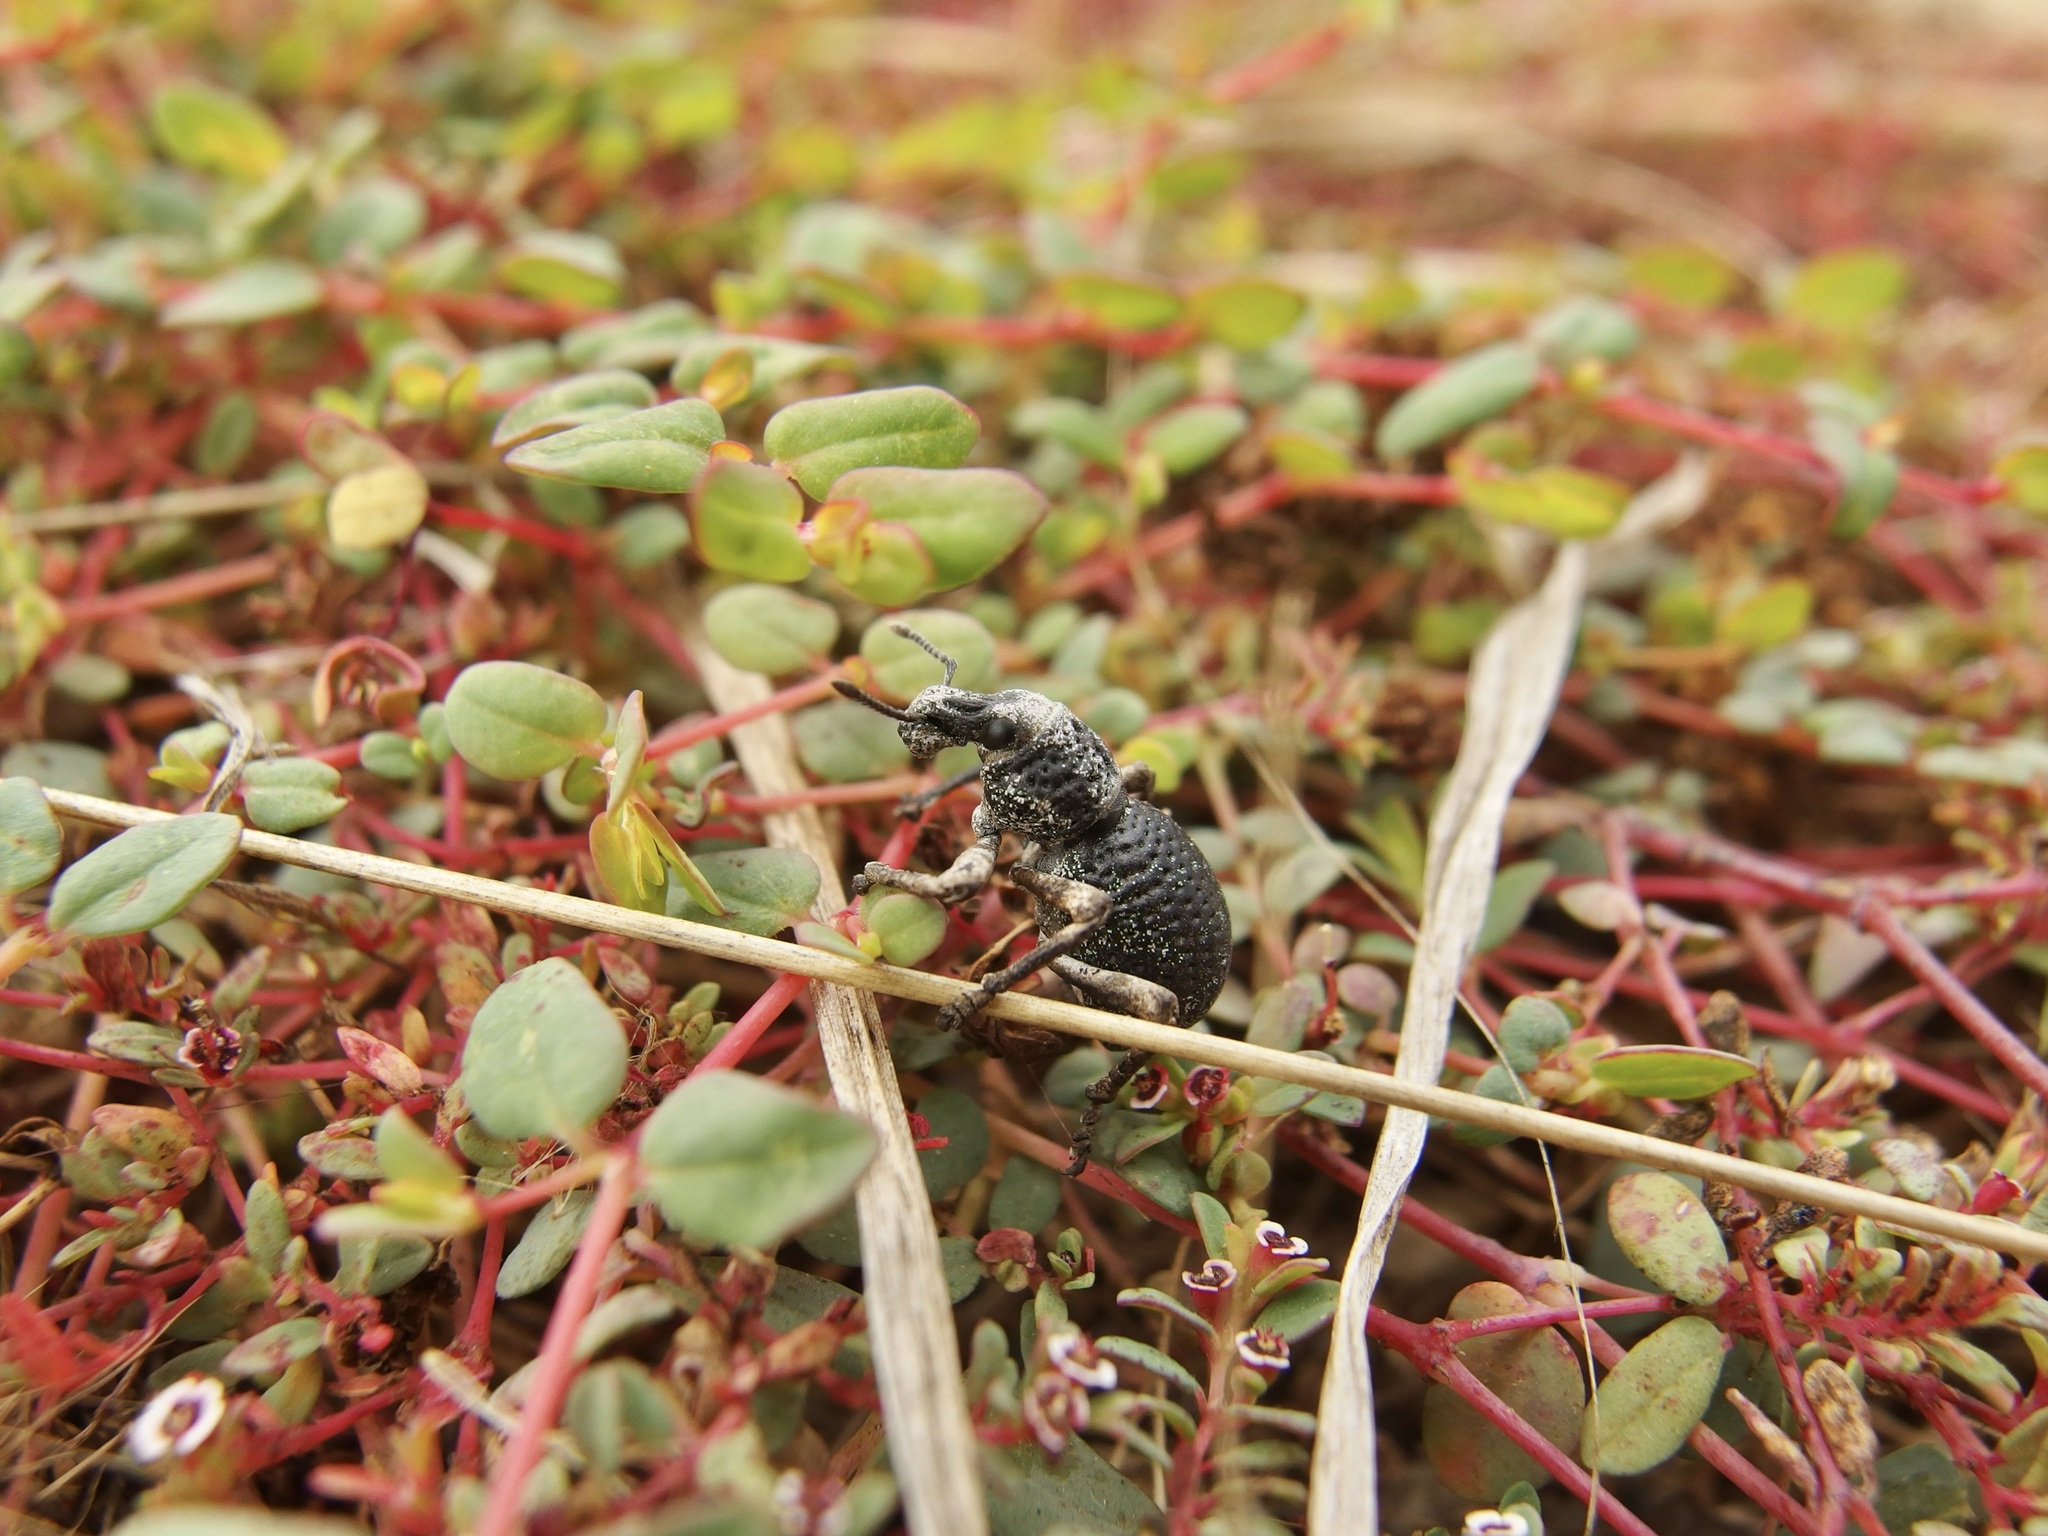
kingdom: Plantae
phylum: Tracheophyta
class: Magnoliopsida
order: Malpighiales
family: Euphorbiaceae
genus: Euphorbia
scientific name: Euphorbia polycarpa
